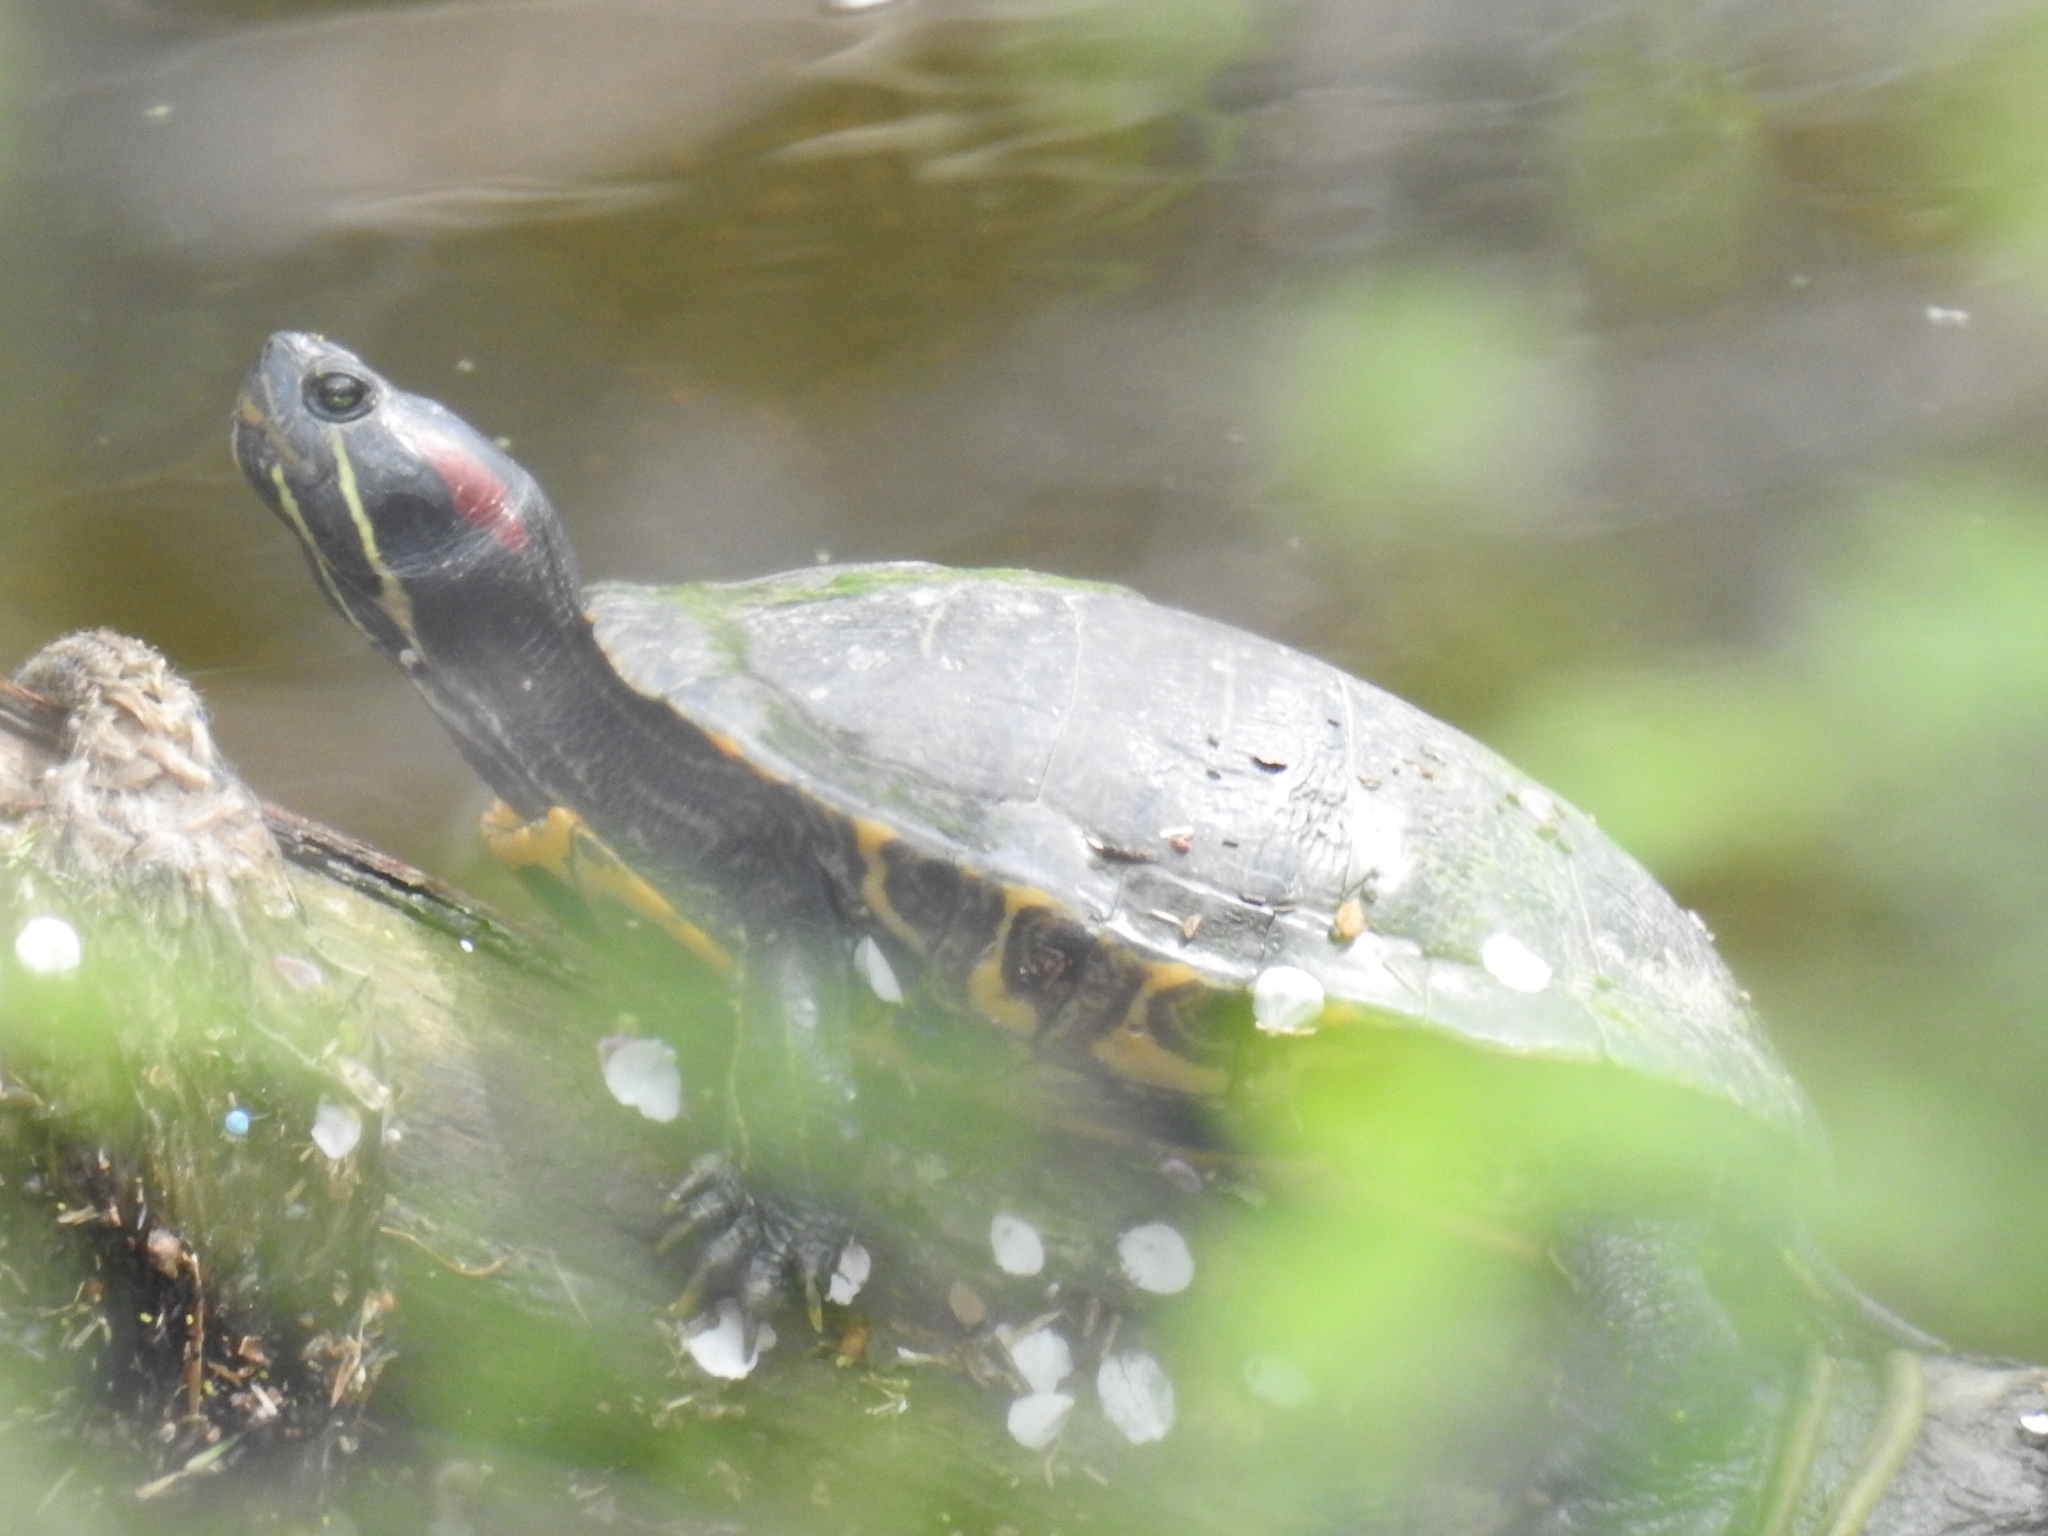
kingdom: Animalia
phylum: Chordata
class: Testudines
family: Emydidae
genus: Trachemys
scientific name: Trachemys scripta
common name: Slider
